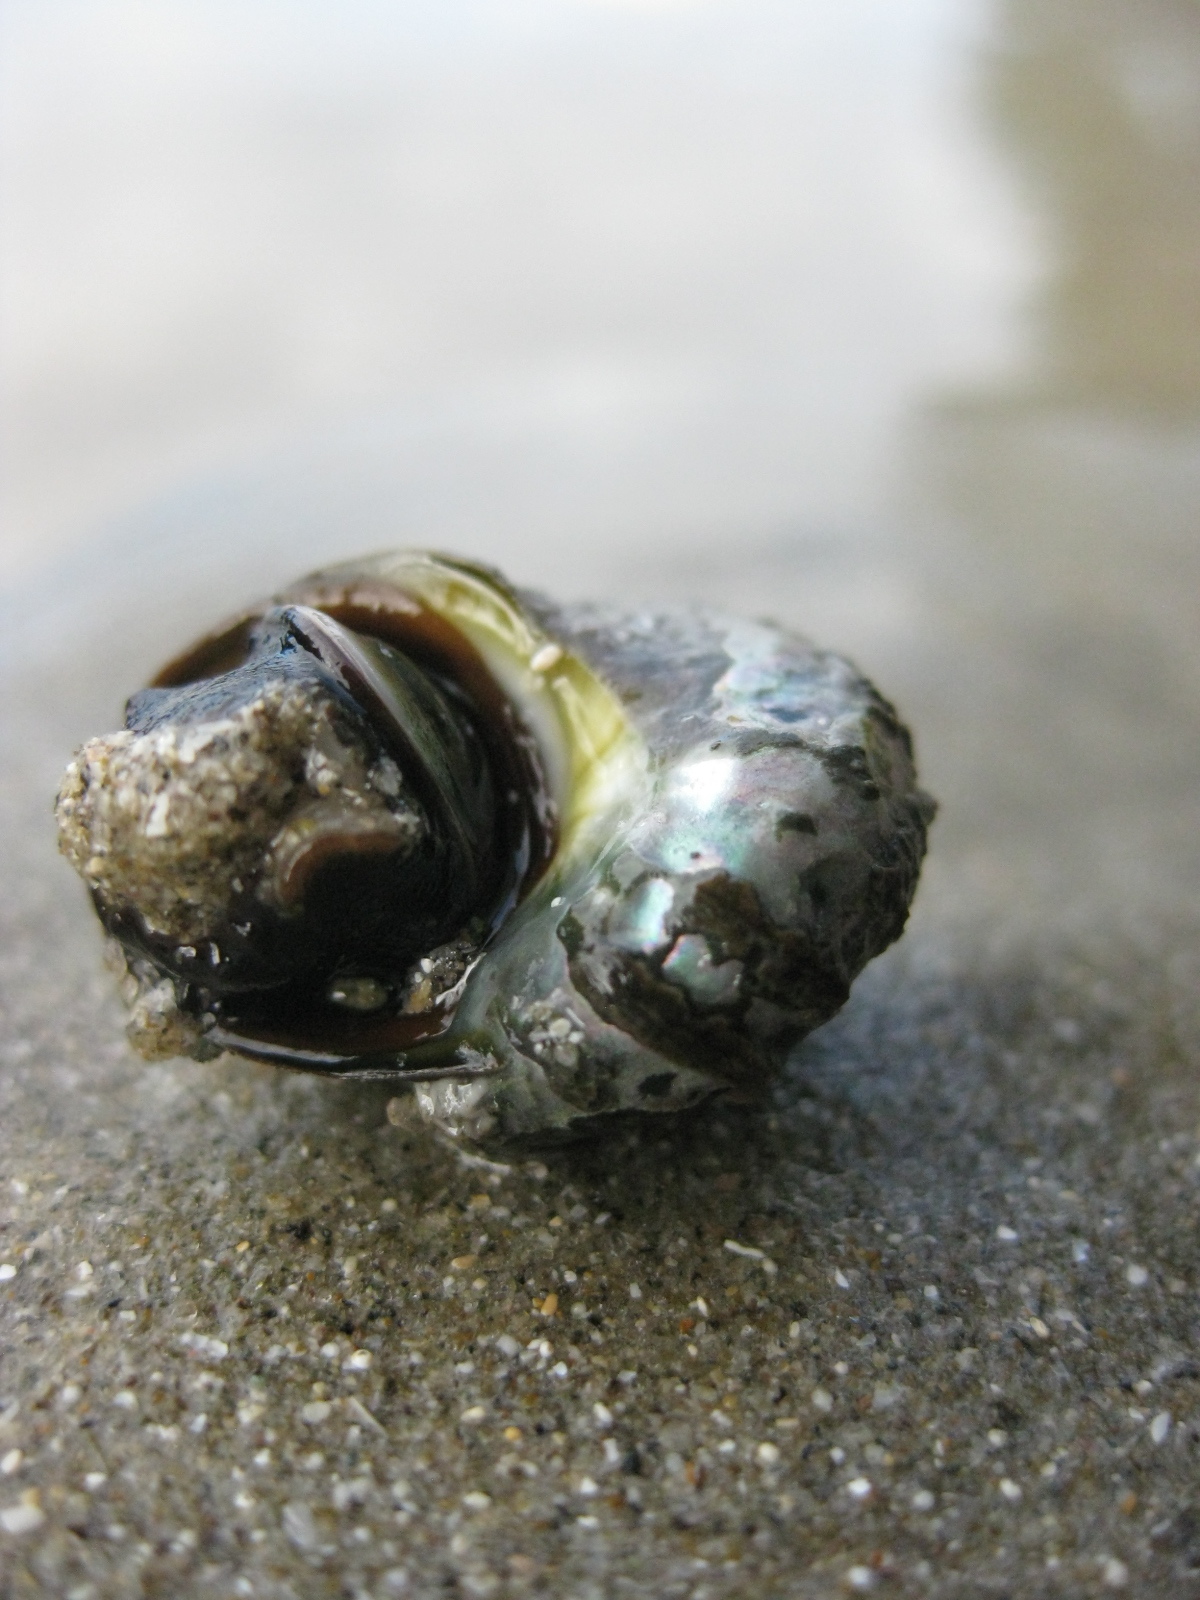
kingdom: Animalia
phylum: Mollusca
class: Gastropoda
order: Trochida
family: Turbinidae
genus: Lunella
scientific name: Lunella smaragda
